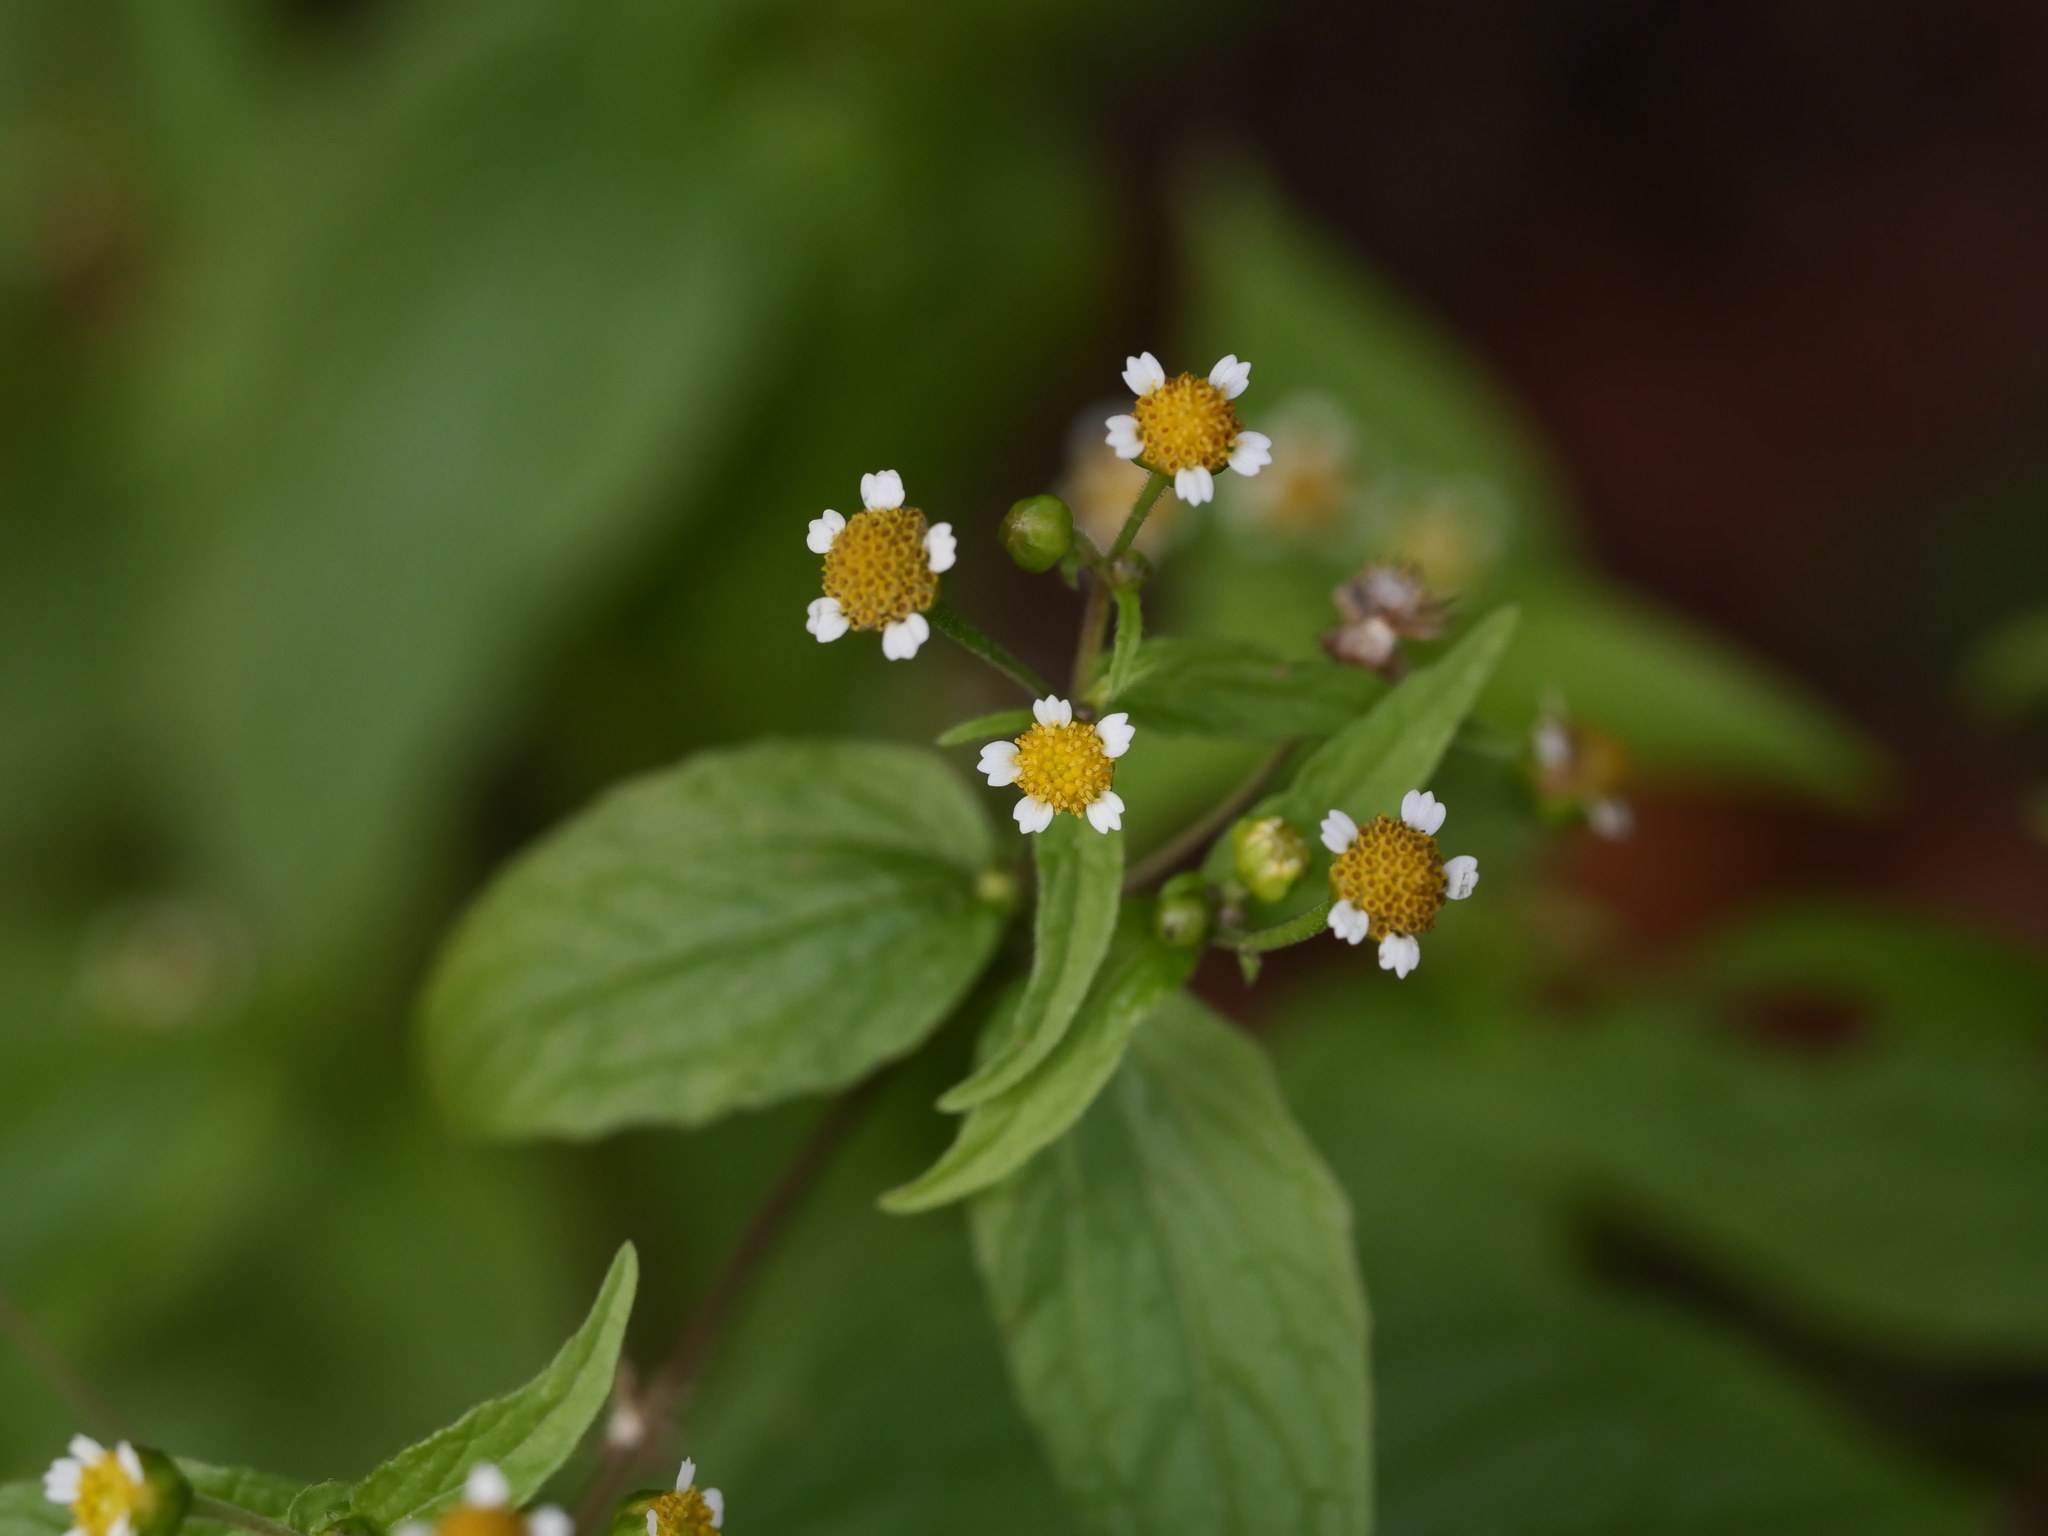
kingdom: Plantae
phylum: Tracheophyta
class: Magnoliopsida
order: Asterales
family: Asteraceae
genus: Galinsoga
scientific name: Galinsoga parviflora
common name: Gallant soldier
